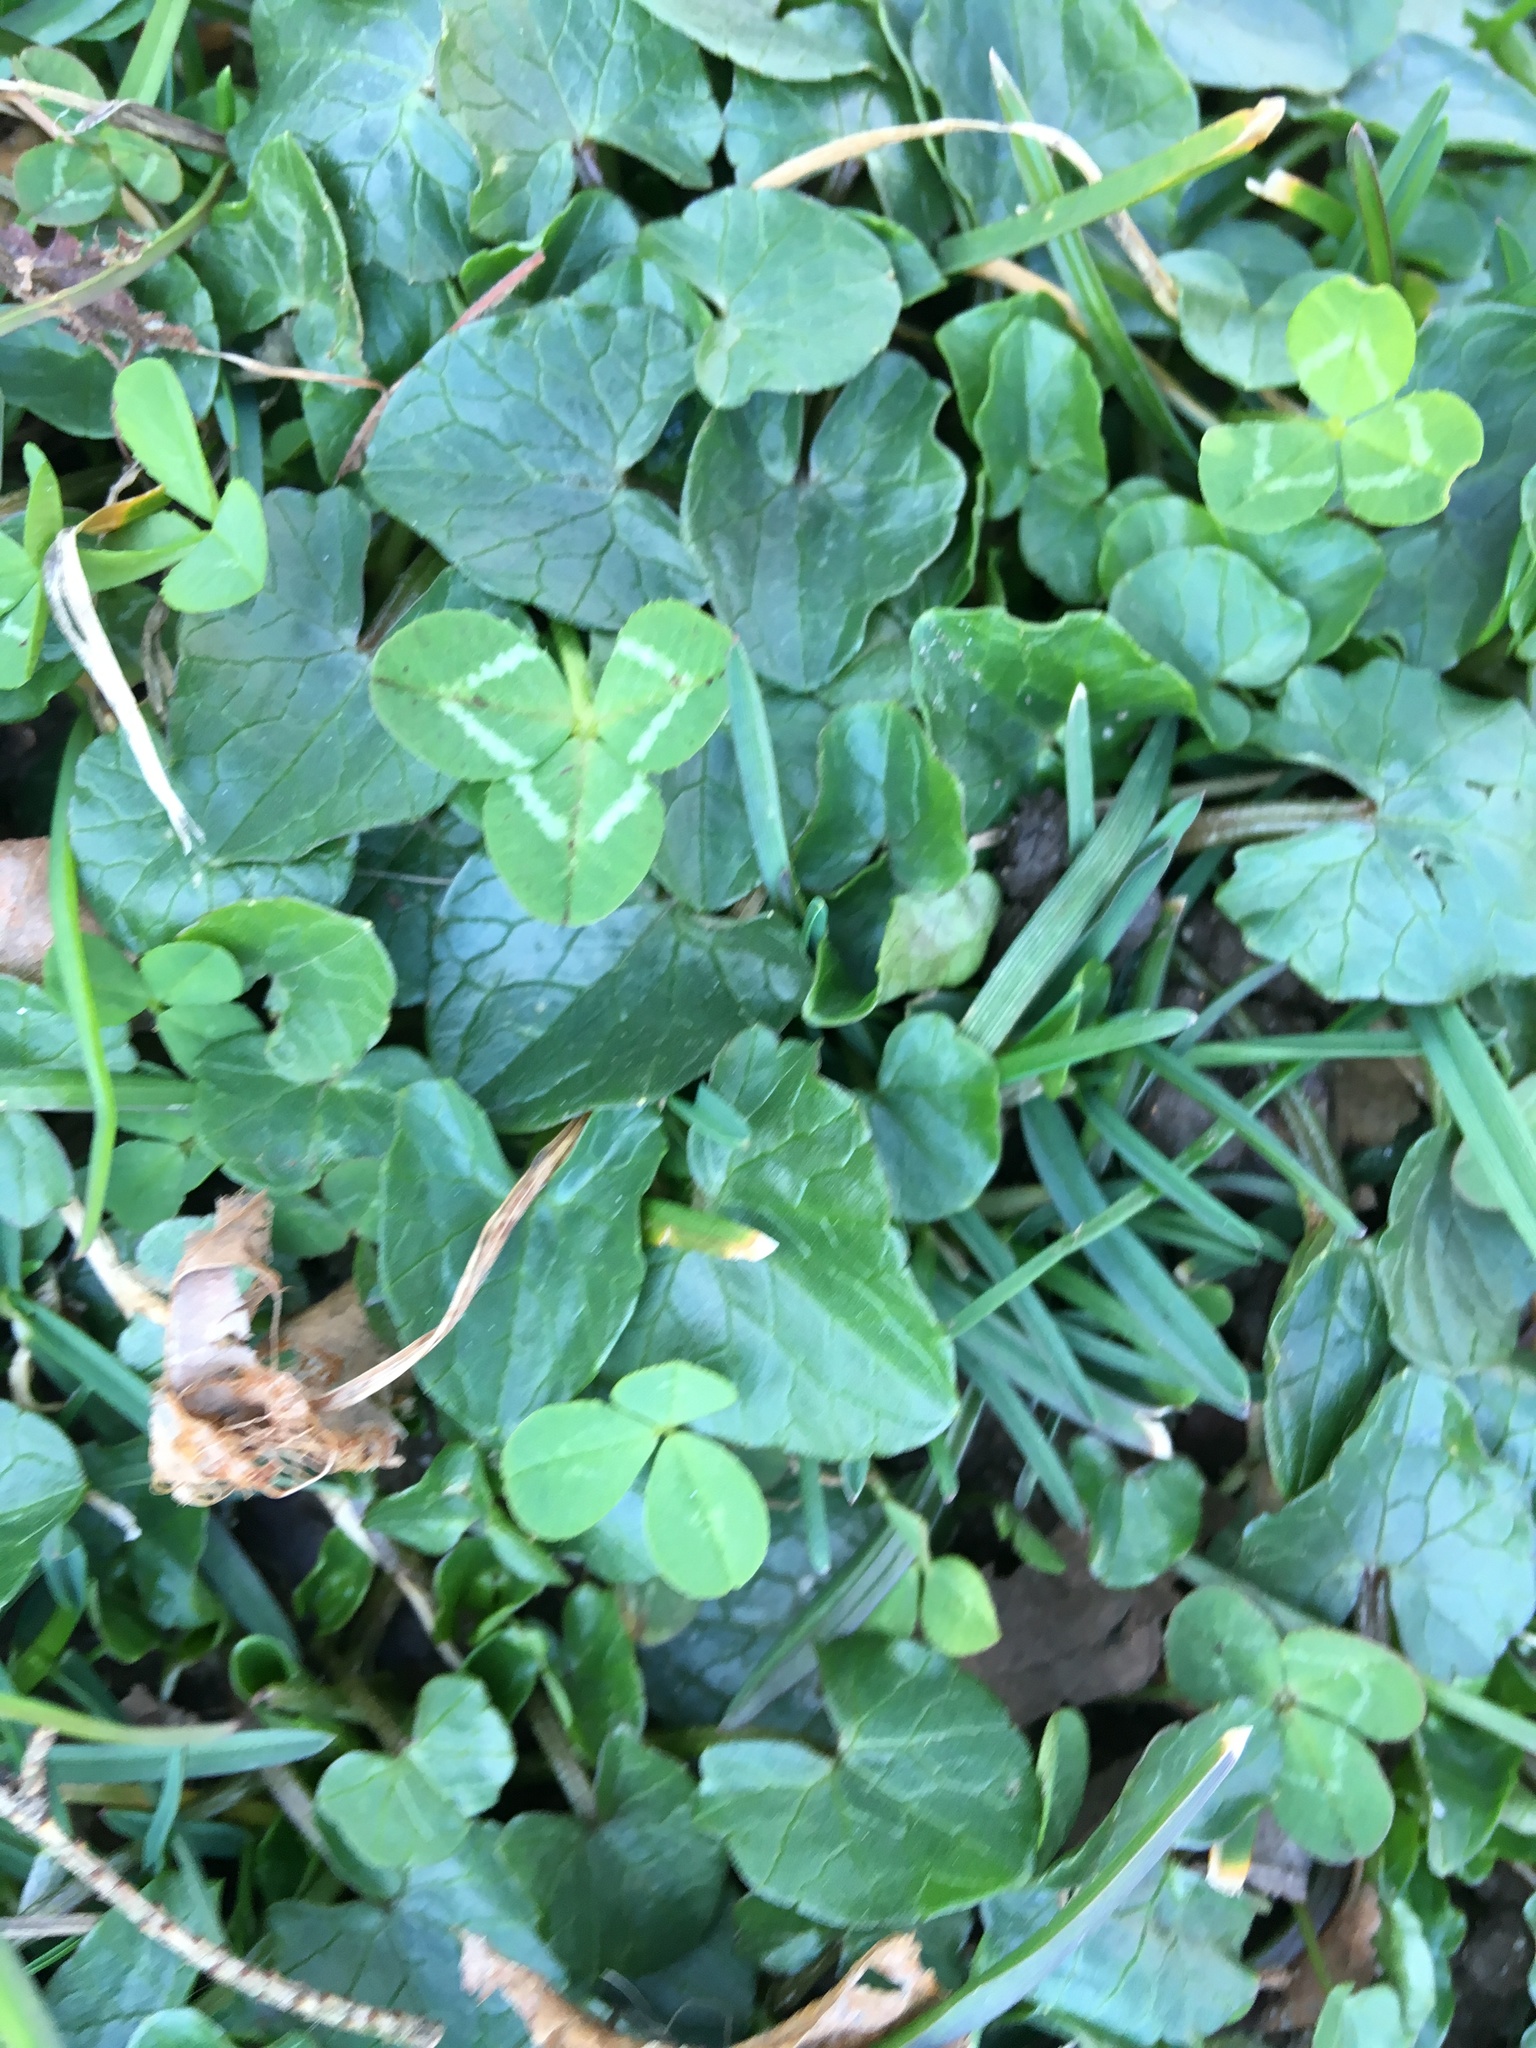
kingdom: Plantae
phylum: Tracheophyta
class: Magnoliopsida
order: Ranunculales
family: Ranunculaceae
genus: Ficaria
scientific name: Ficaria verna
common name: Lesser celandine
